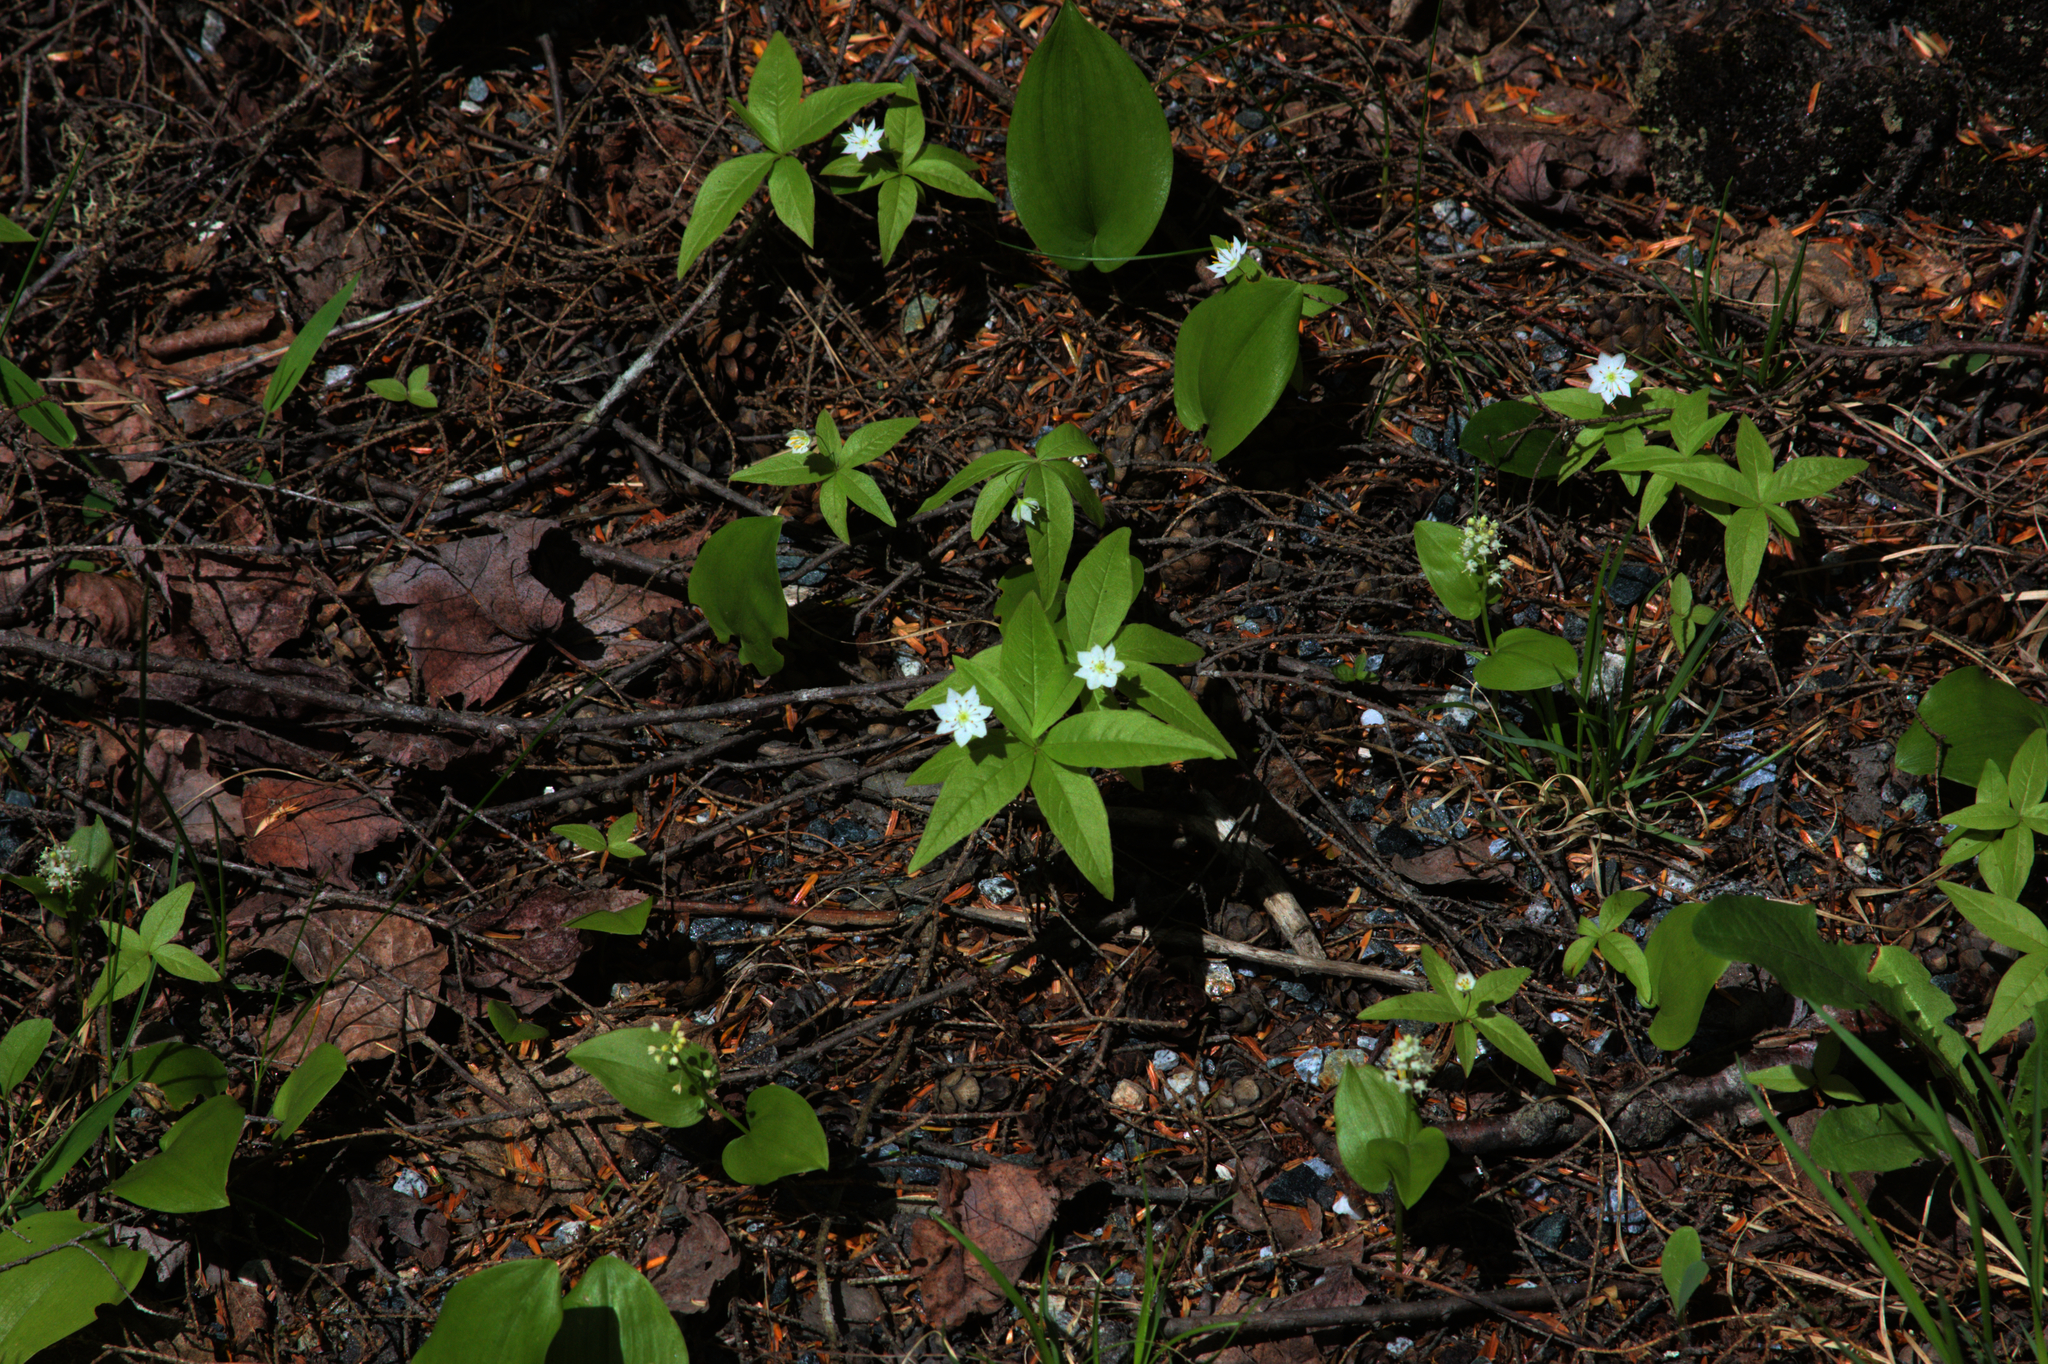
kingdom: Plantae
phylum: Tracheophyta
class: Magnoliopsida
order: Ericales
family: Primulaceae
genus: Lysimachia
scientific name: Lysimachia borealis
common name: American starflower
